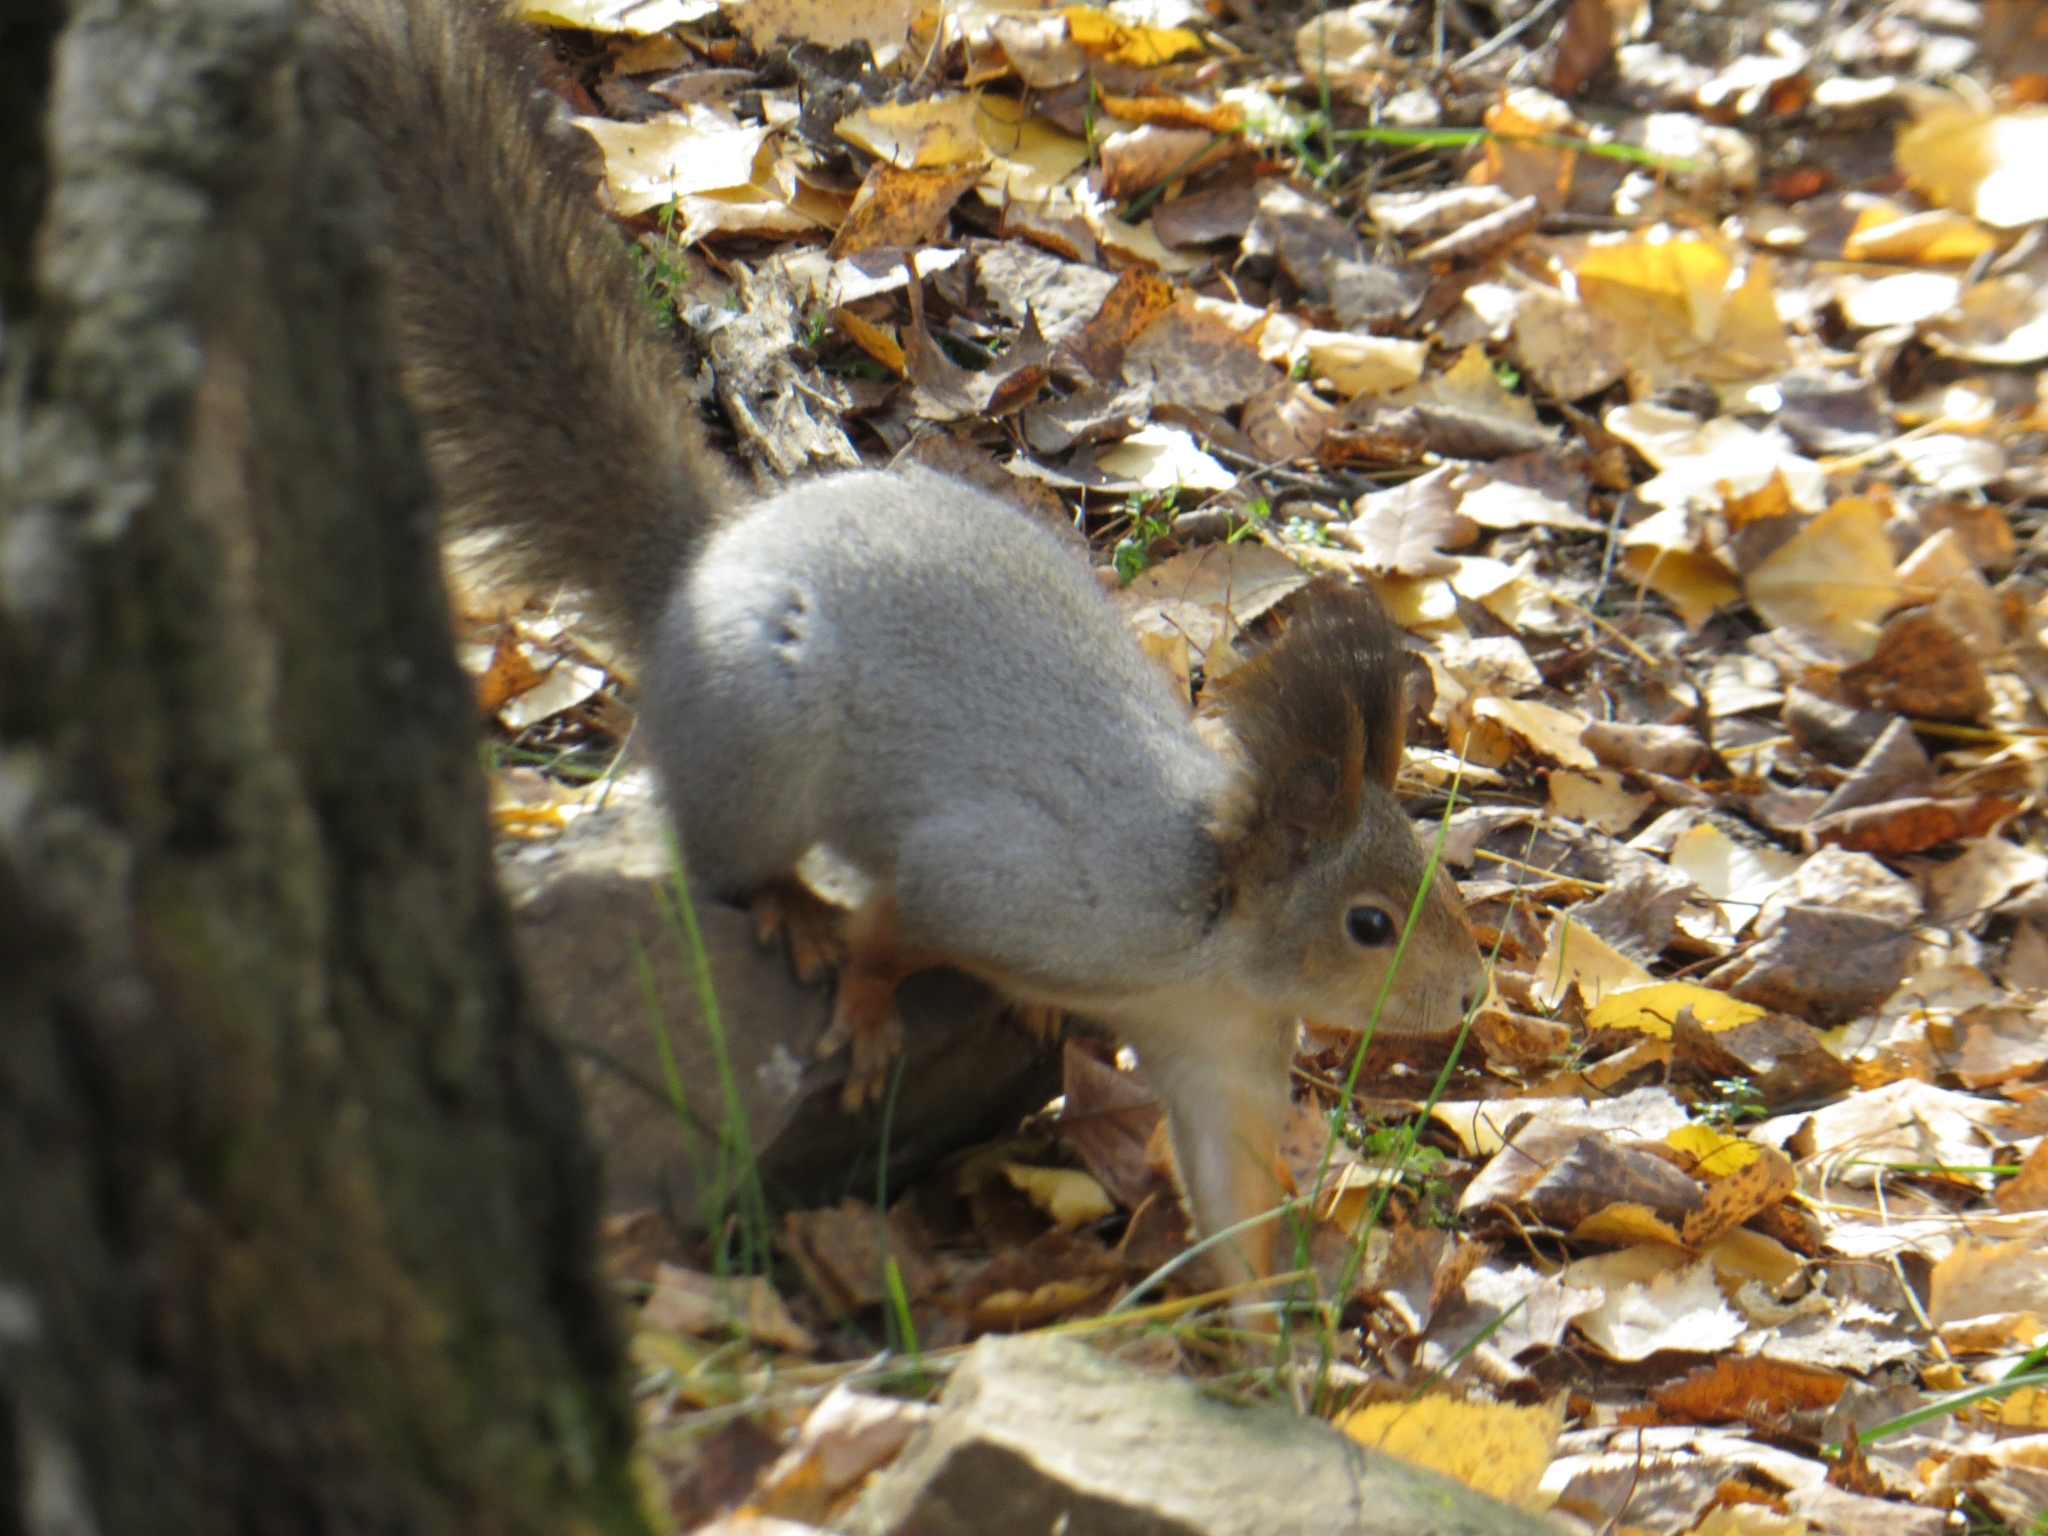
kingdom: Animalia
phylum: Chordata
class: Mammalia
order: Rodentia
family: Sciuridae
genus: Sciurus
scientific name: Sciurus vulgaris
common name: Eurasian red squirrel
